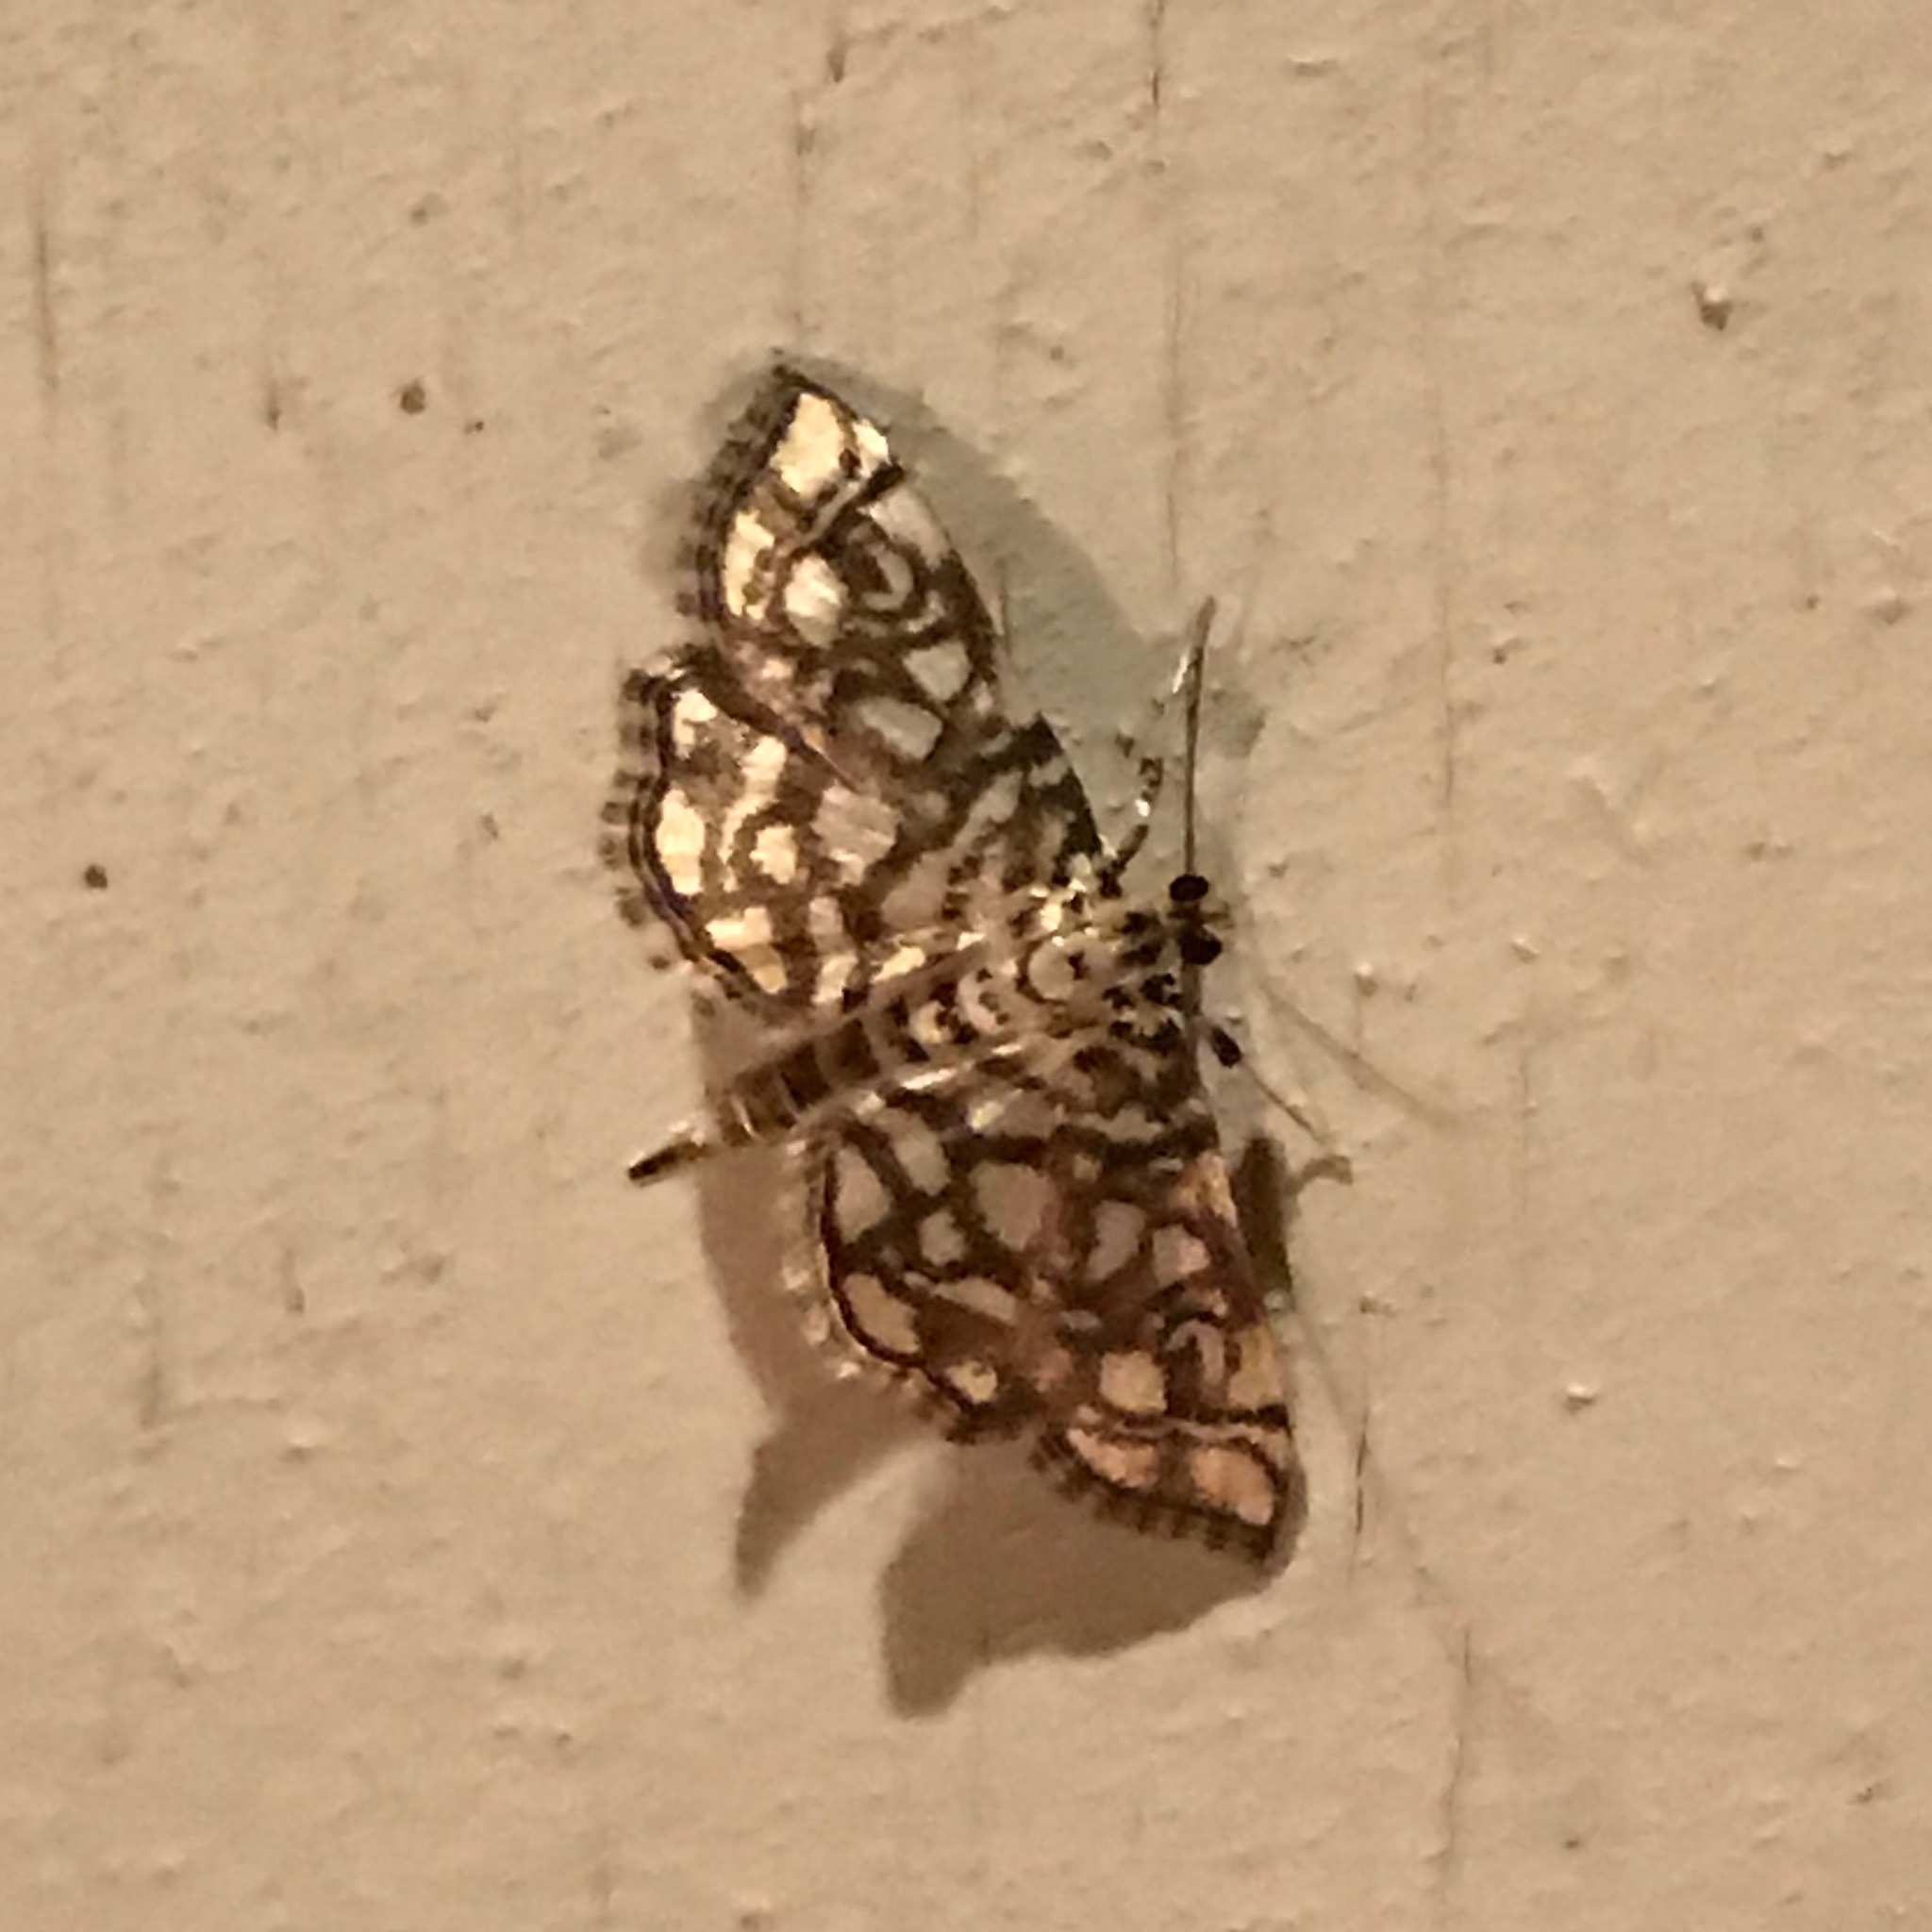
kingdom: Animalia
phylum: Arthropoda
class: Insecta
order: Lepidoptera
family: Crambidae
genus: Lygropia
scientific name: Lygropia rivulalis
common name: Bog lygropia moth
